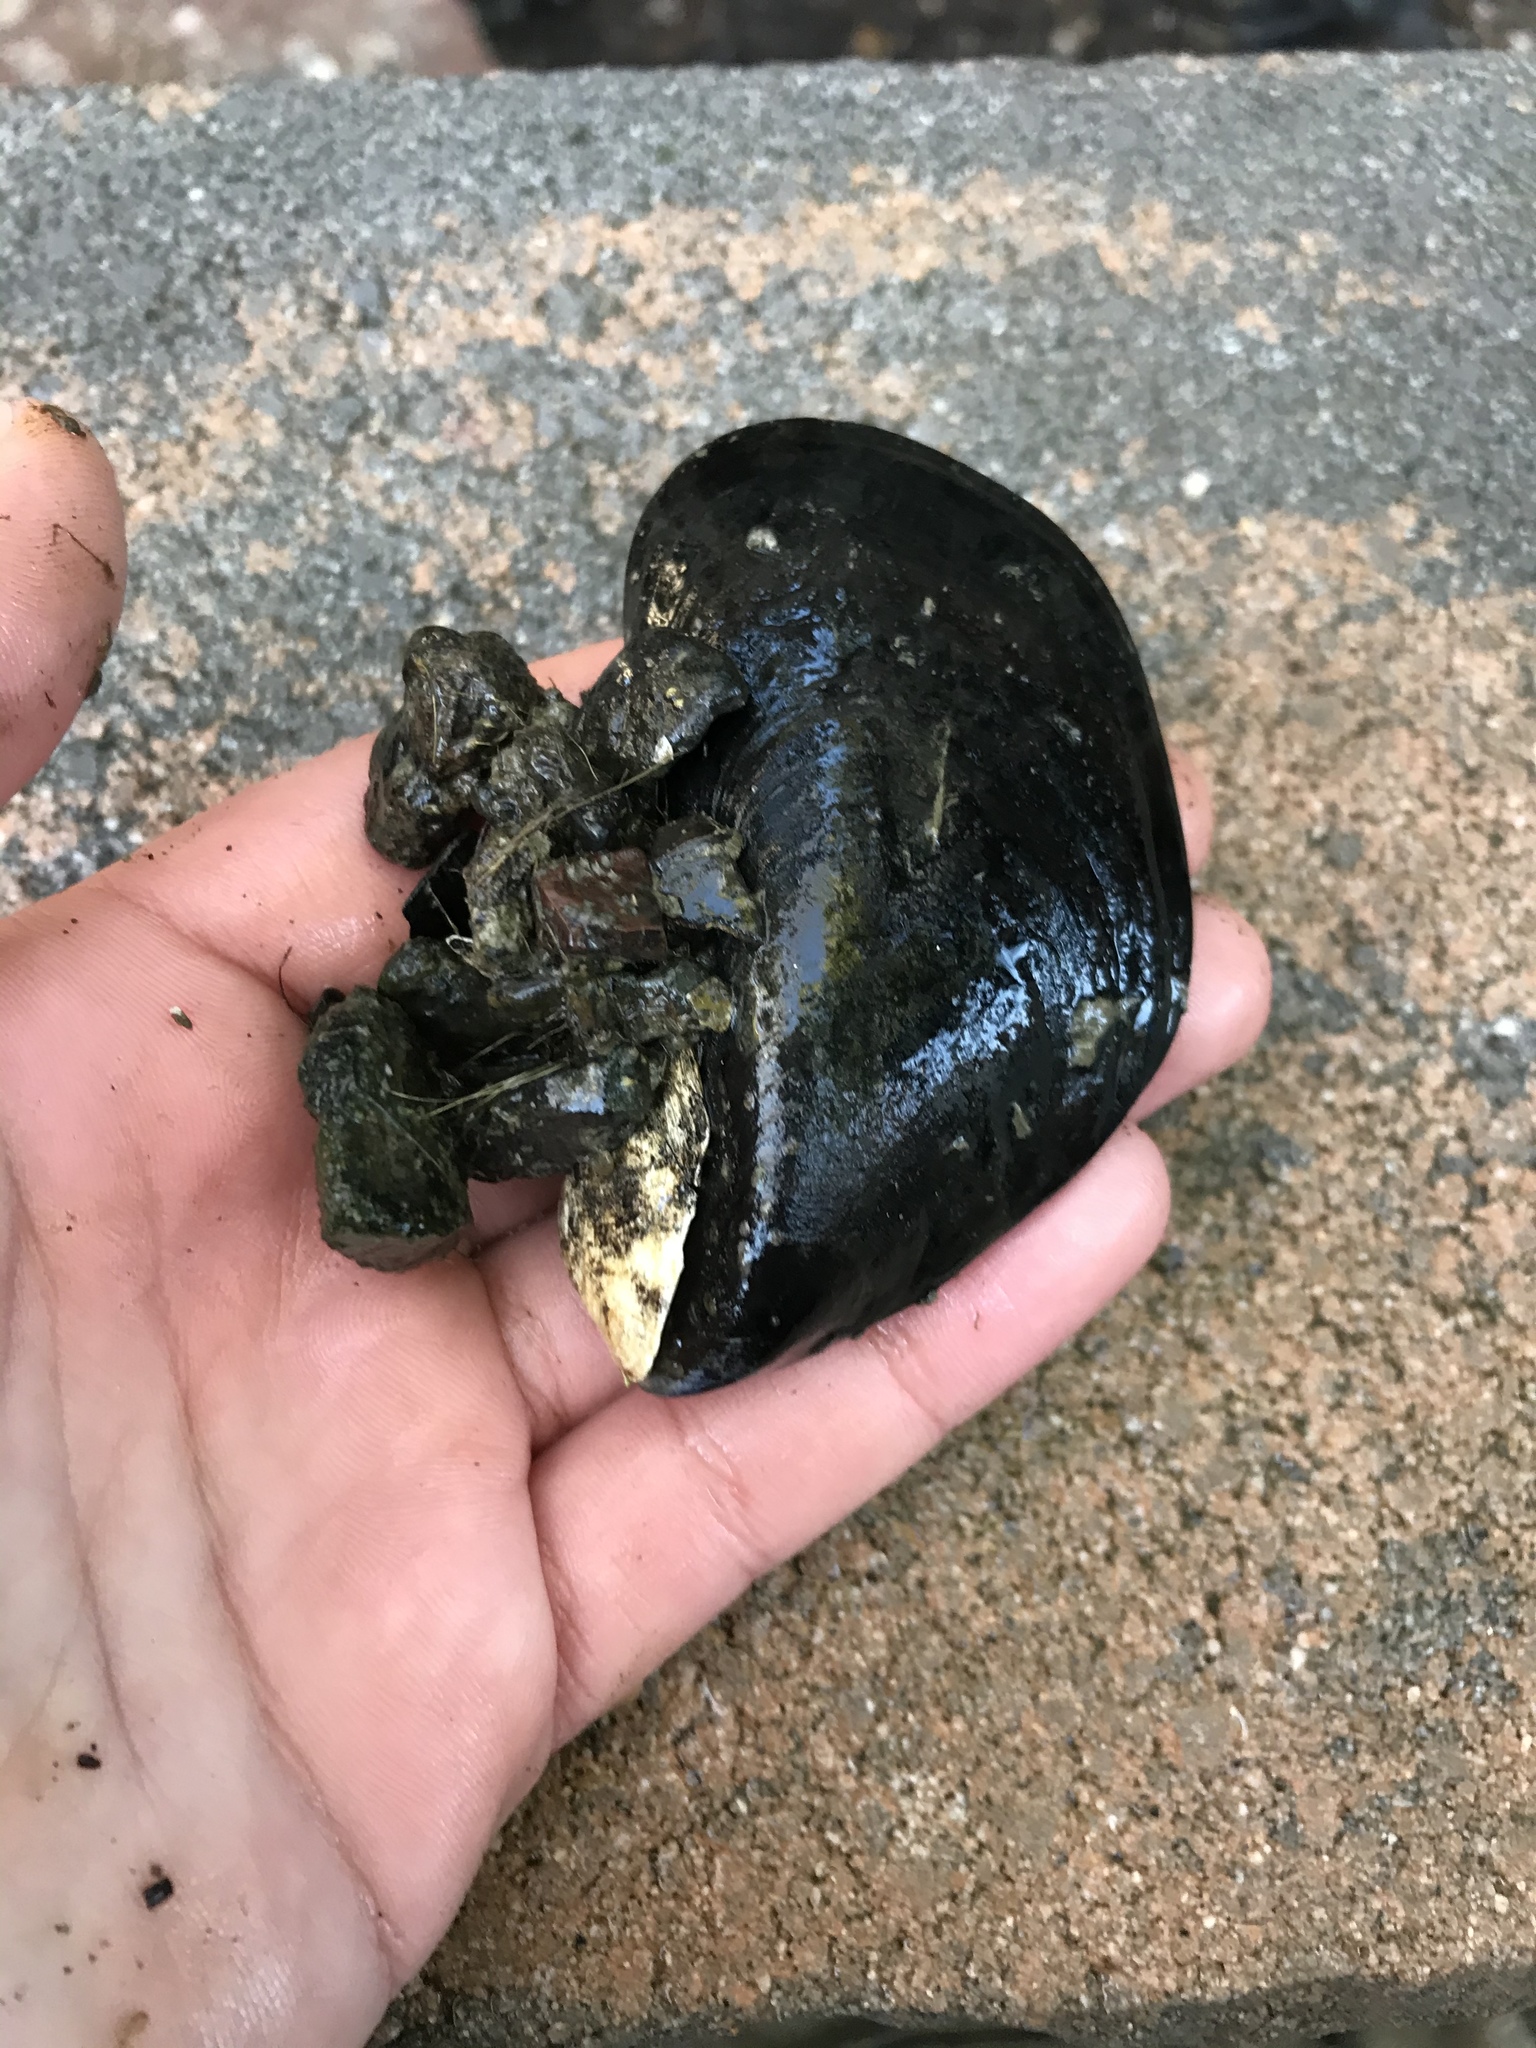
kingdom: Animalia
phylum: Mollusca
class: Bivalvia
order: Mytilida
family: Mytilidae
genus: Mytilus
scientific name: Mytilus
